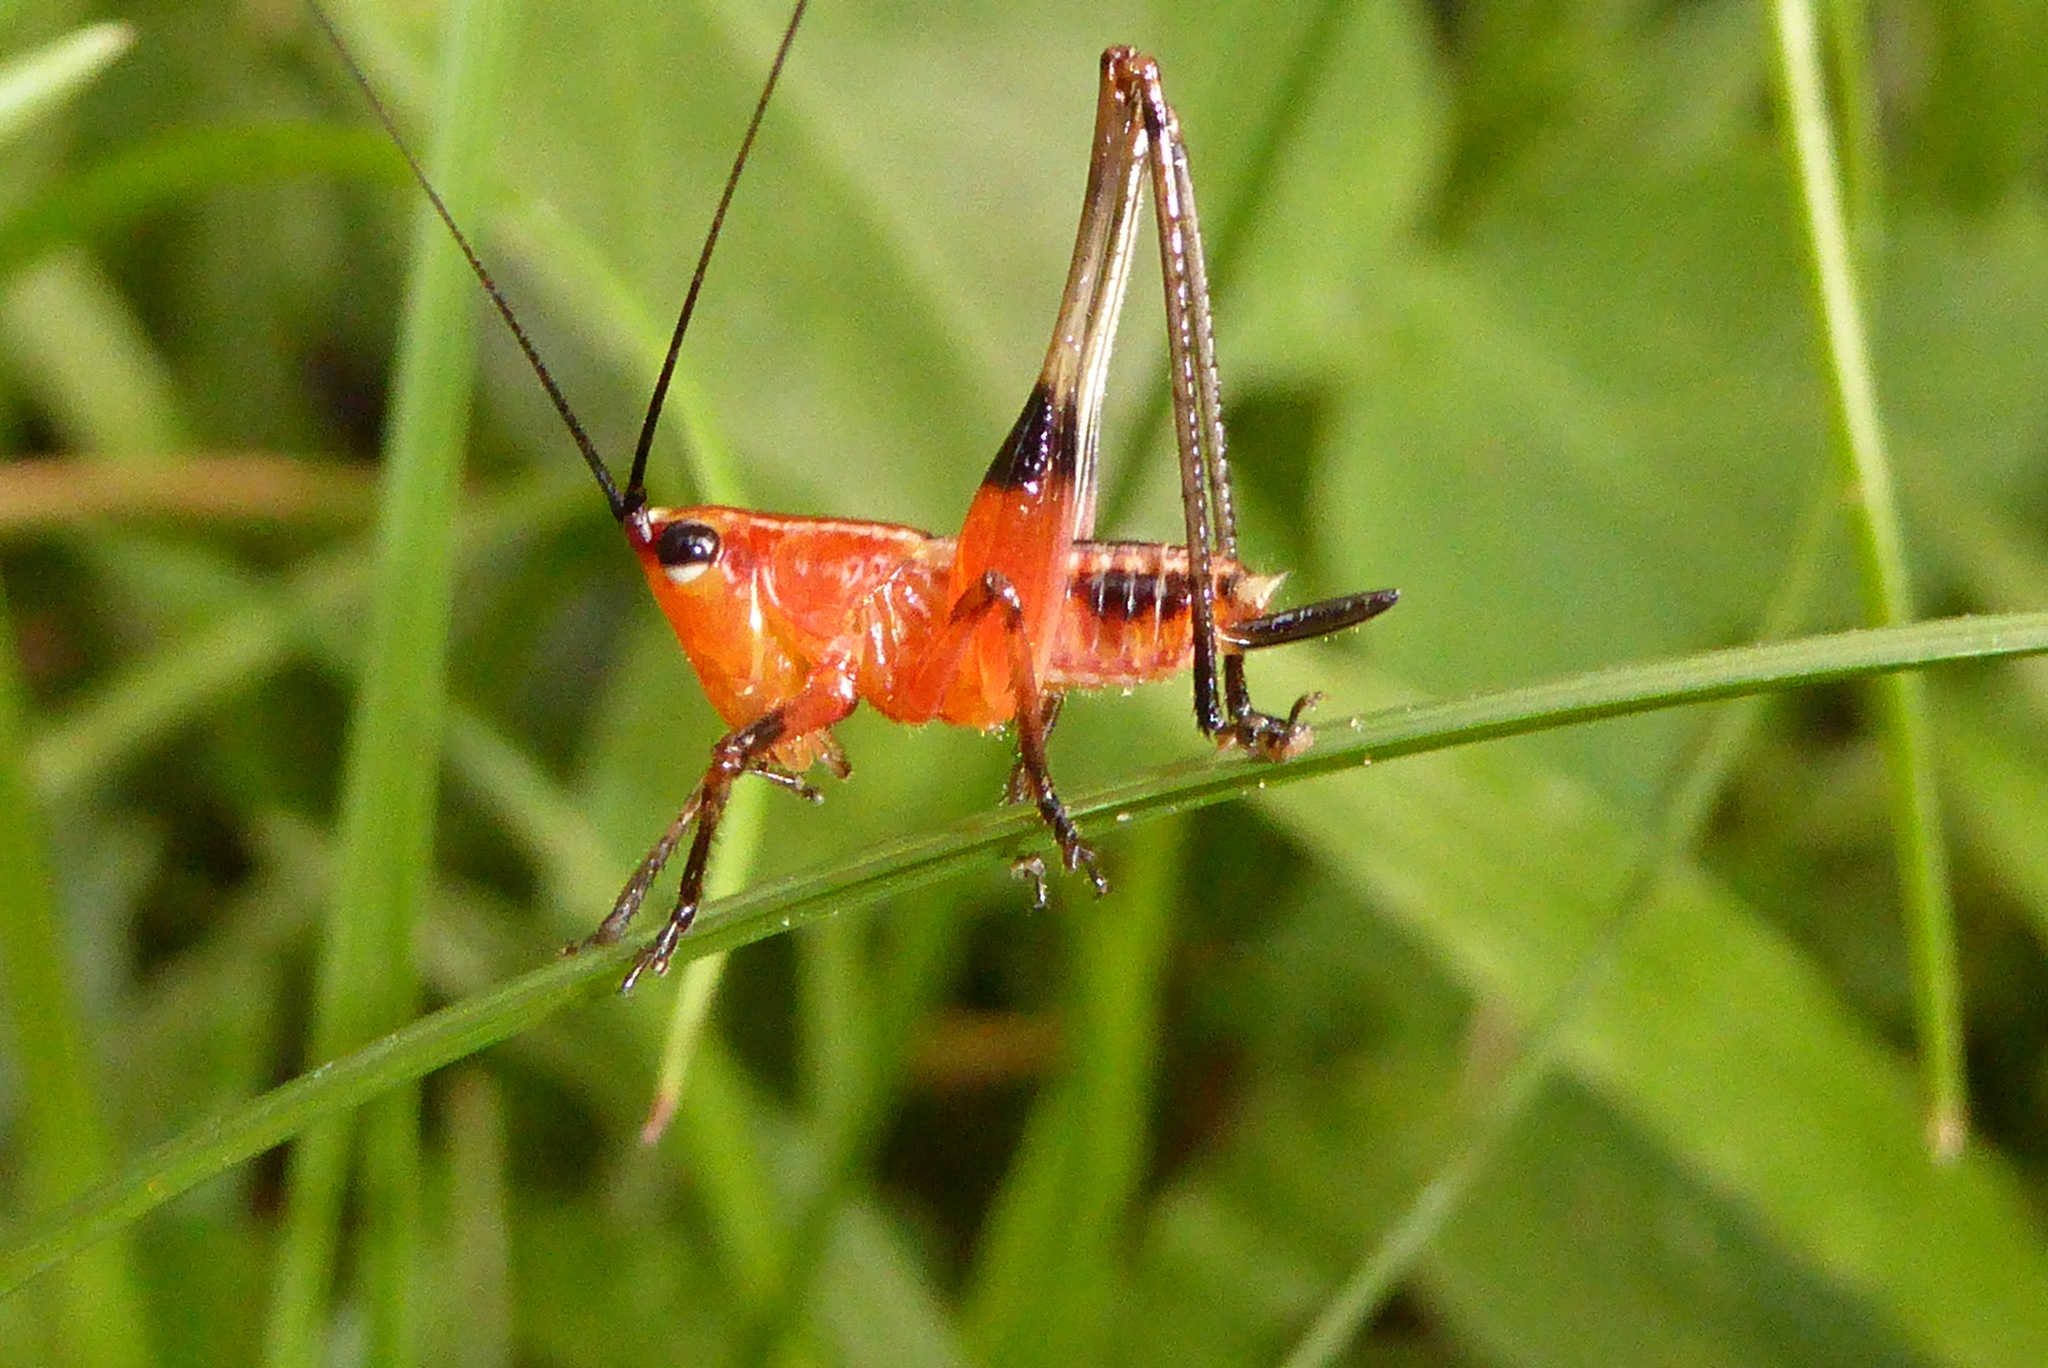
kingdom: Animalia
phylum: Arthropoda
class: Insecta
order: Orthoptera
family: Tettigoniidae
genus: Conocephalus
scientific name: Conocephalus melaenus
